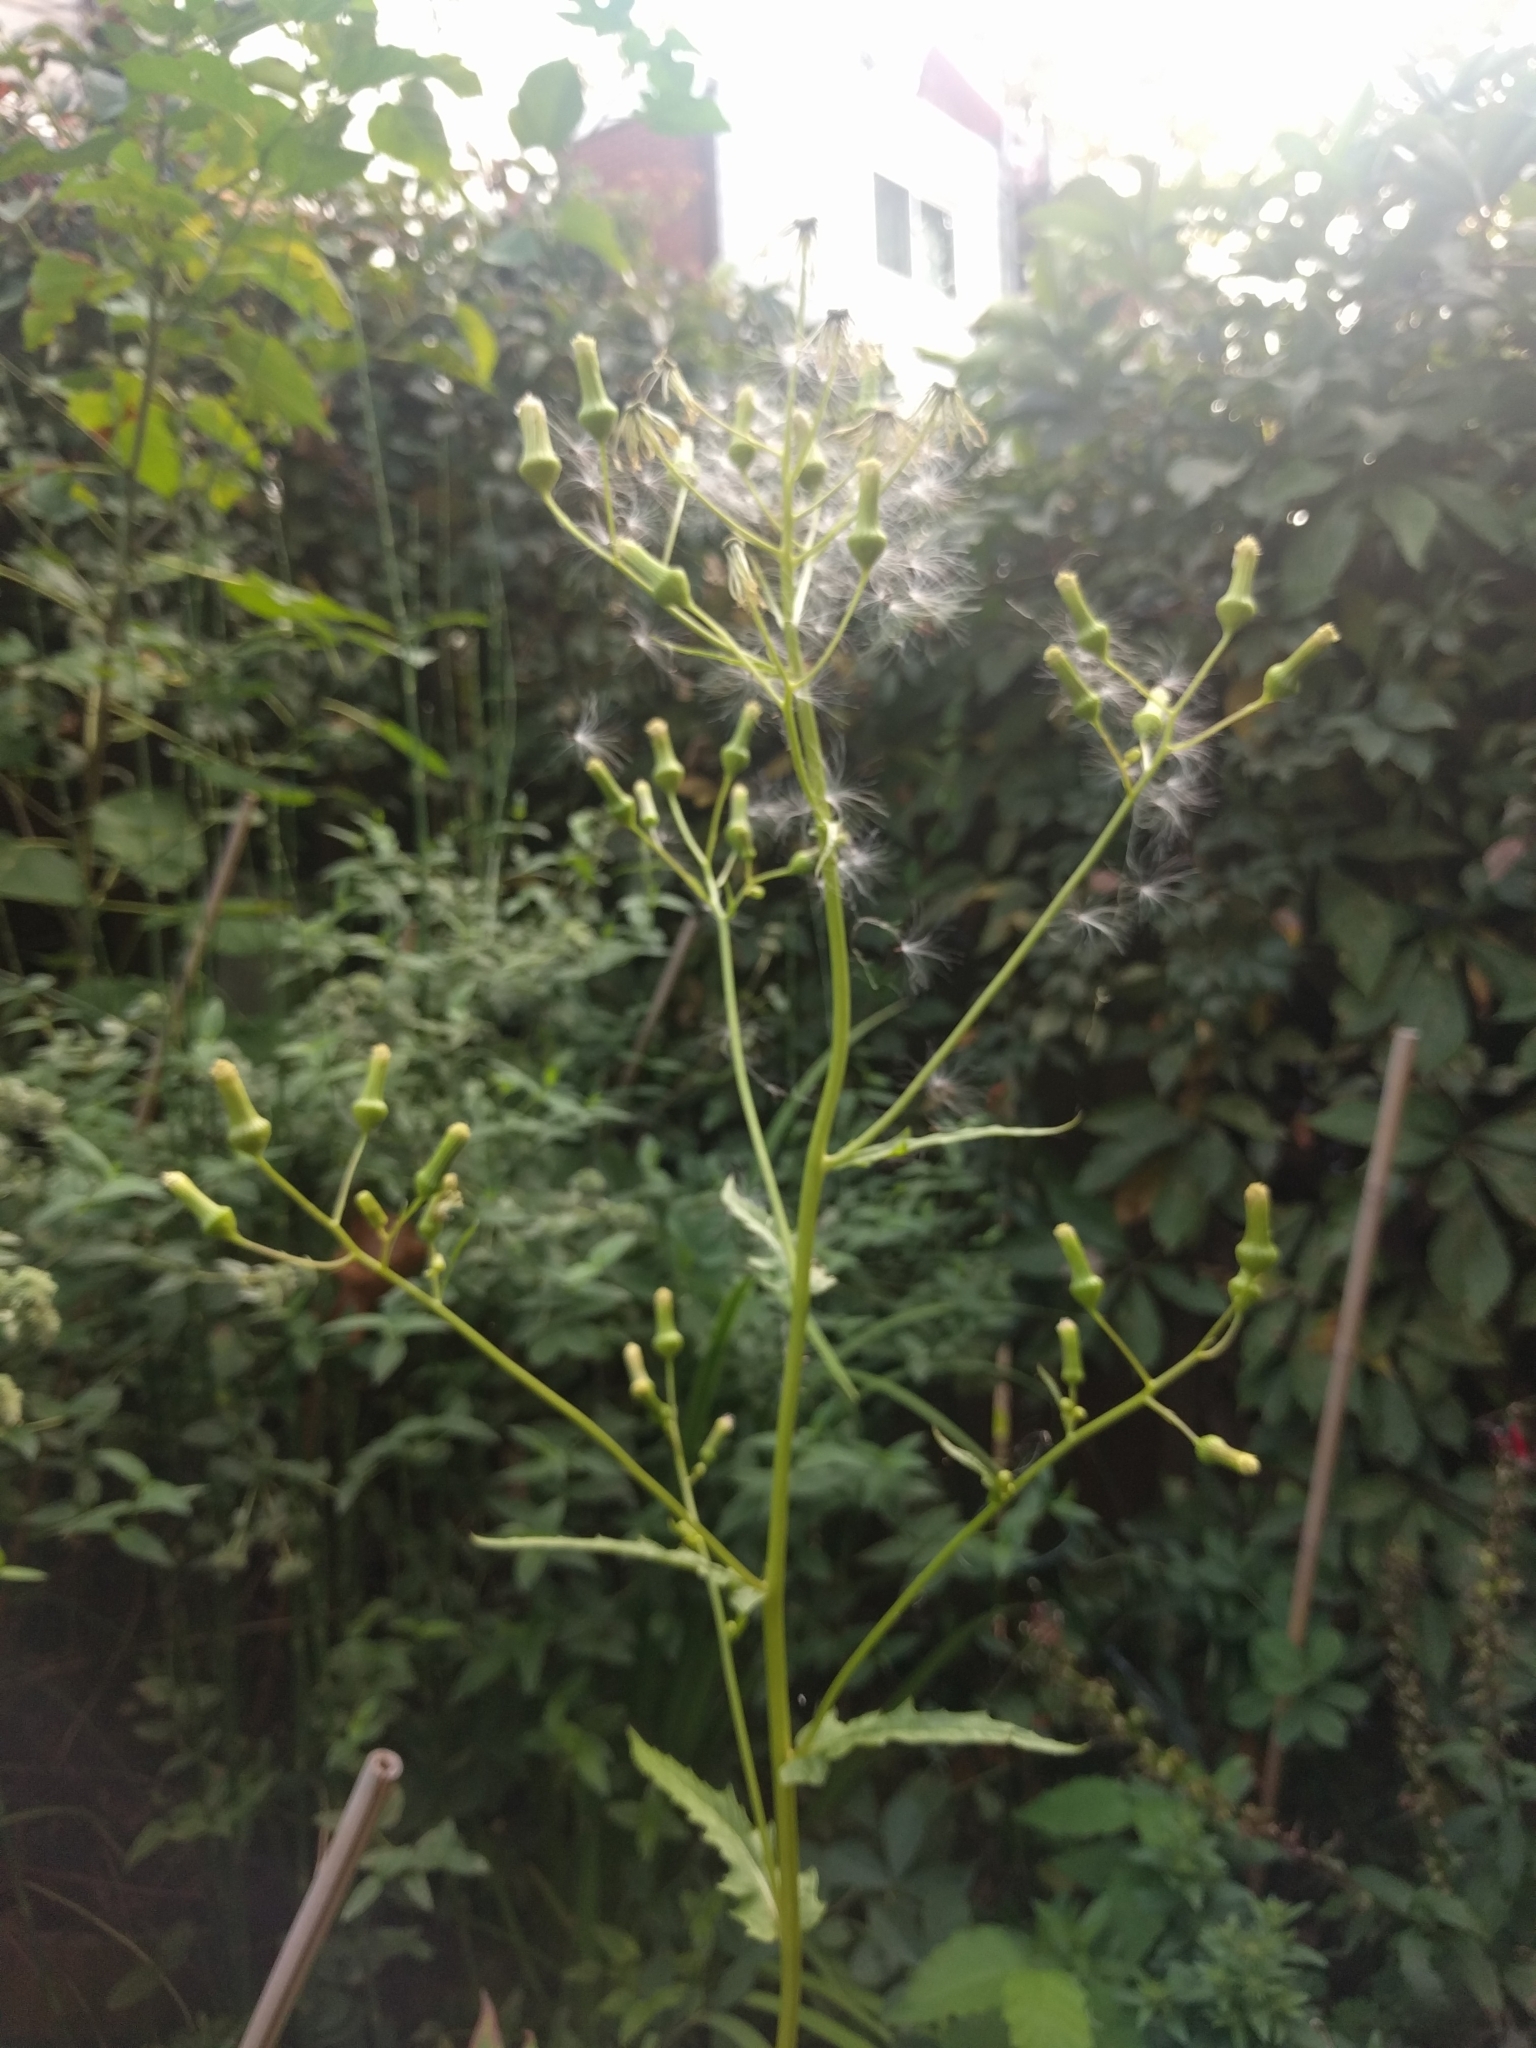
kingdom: Plantae
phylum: Tracheophyta
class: Magnoliopsida
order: Asterales
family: Asteraceae
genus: Erechtites
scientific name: Erechtites hieraciifolius
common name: American burnweed
